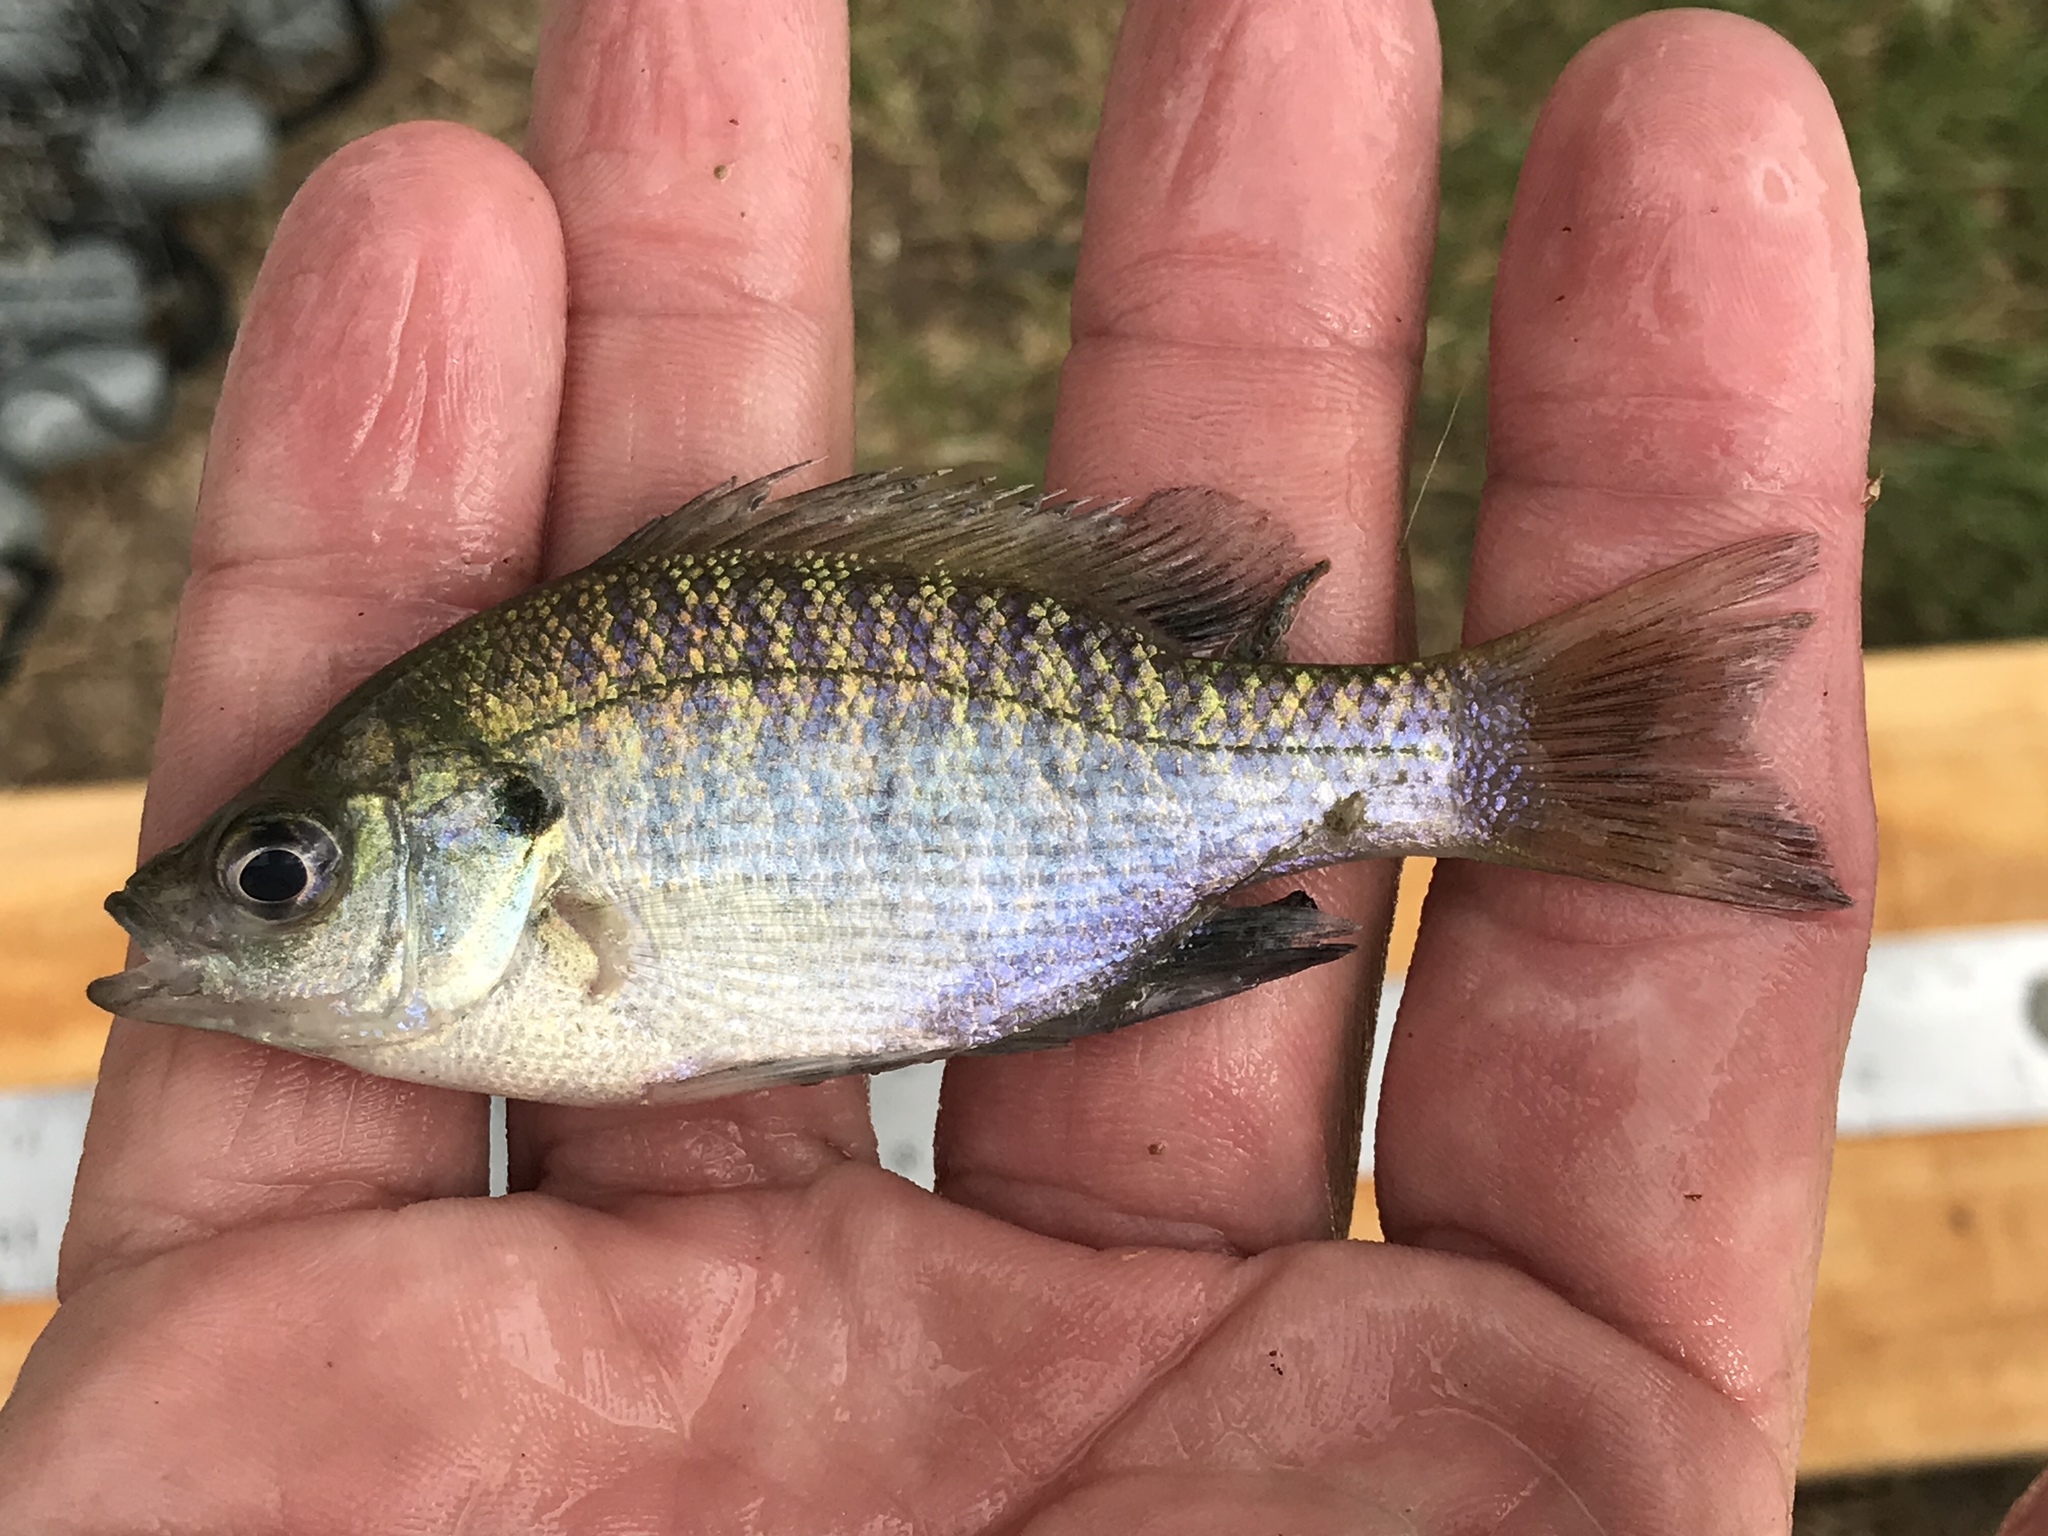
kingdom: Animalia
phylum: Chordata
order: Perciformes
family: Centrarchidae
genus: Lepomis
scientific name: Lepomis macrochirus
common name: Bluegill
